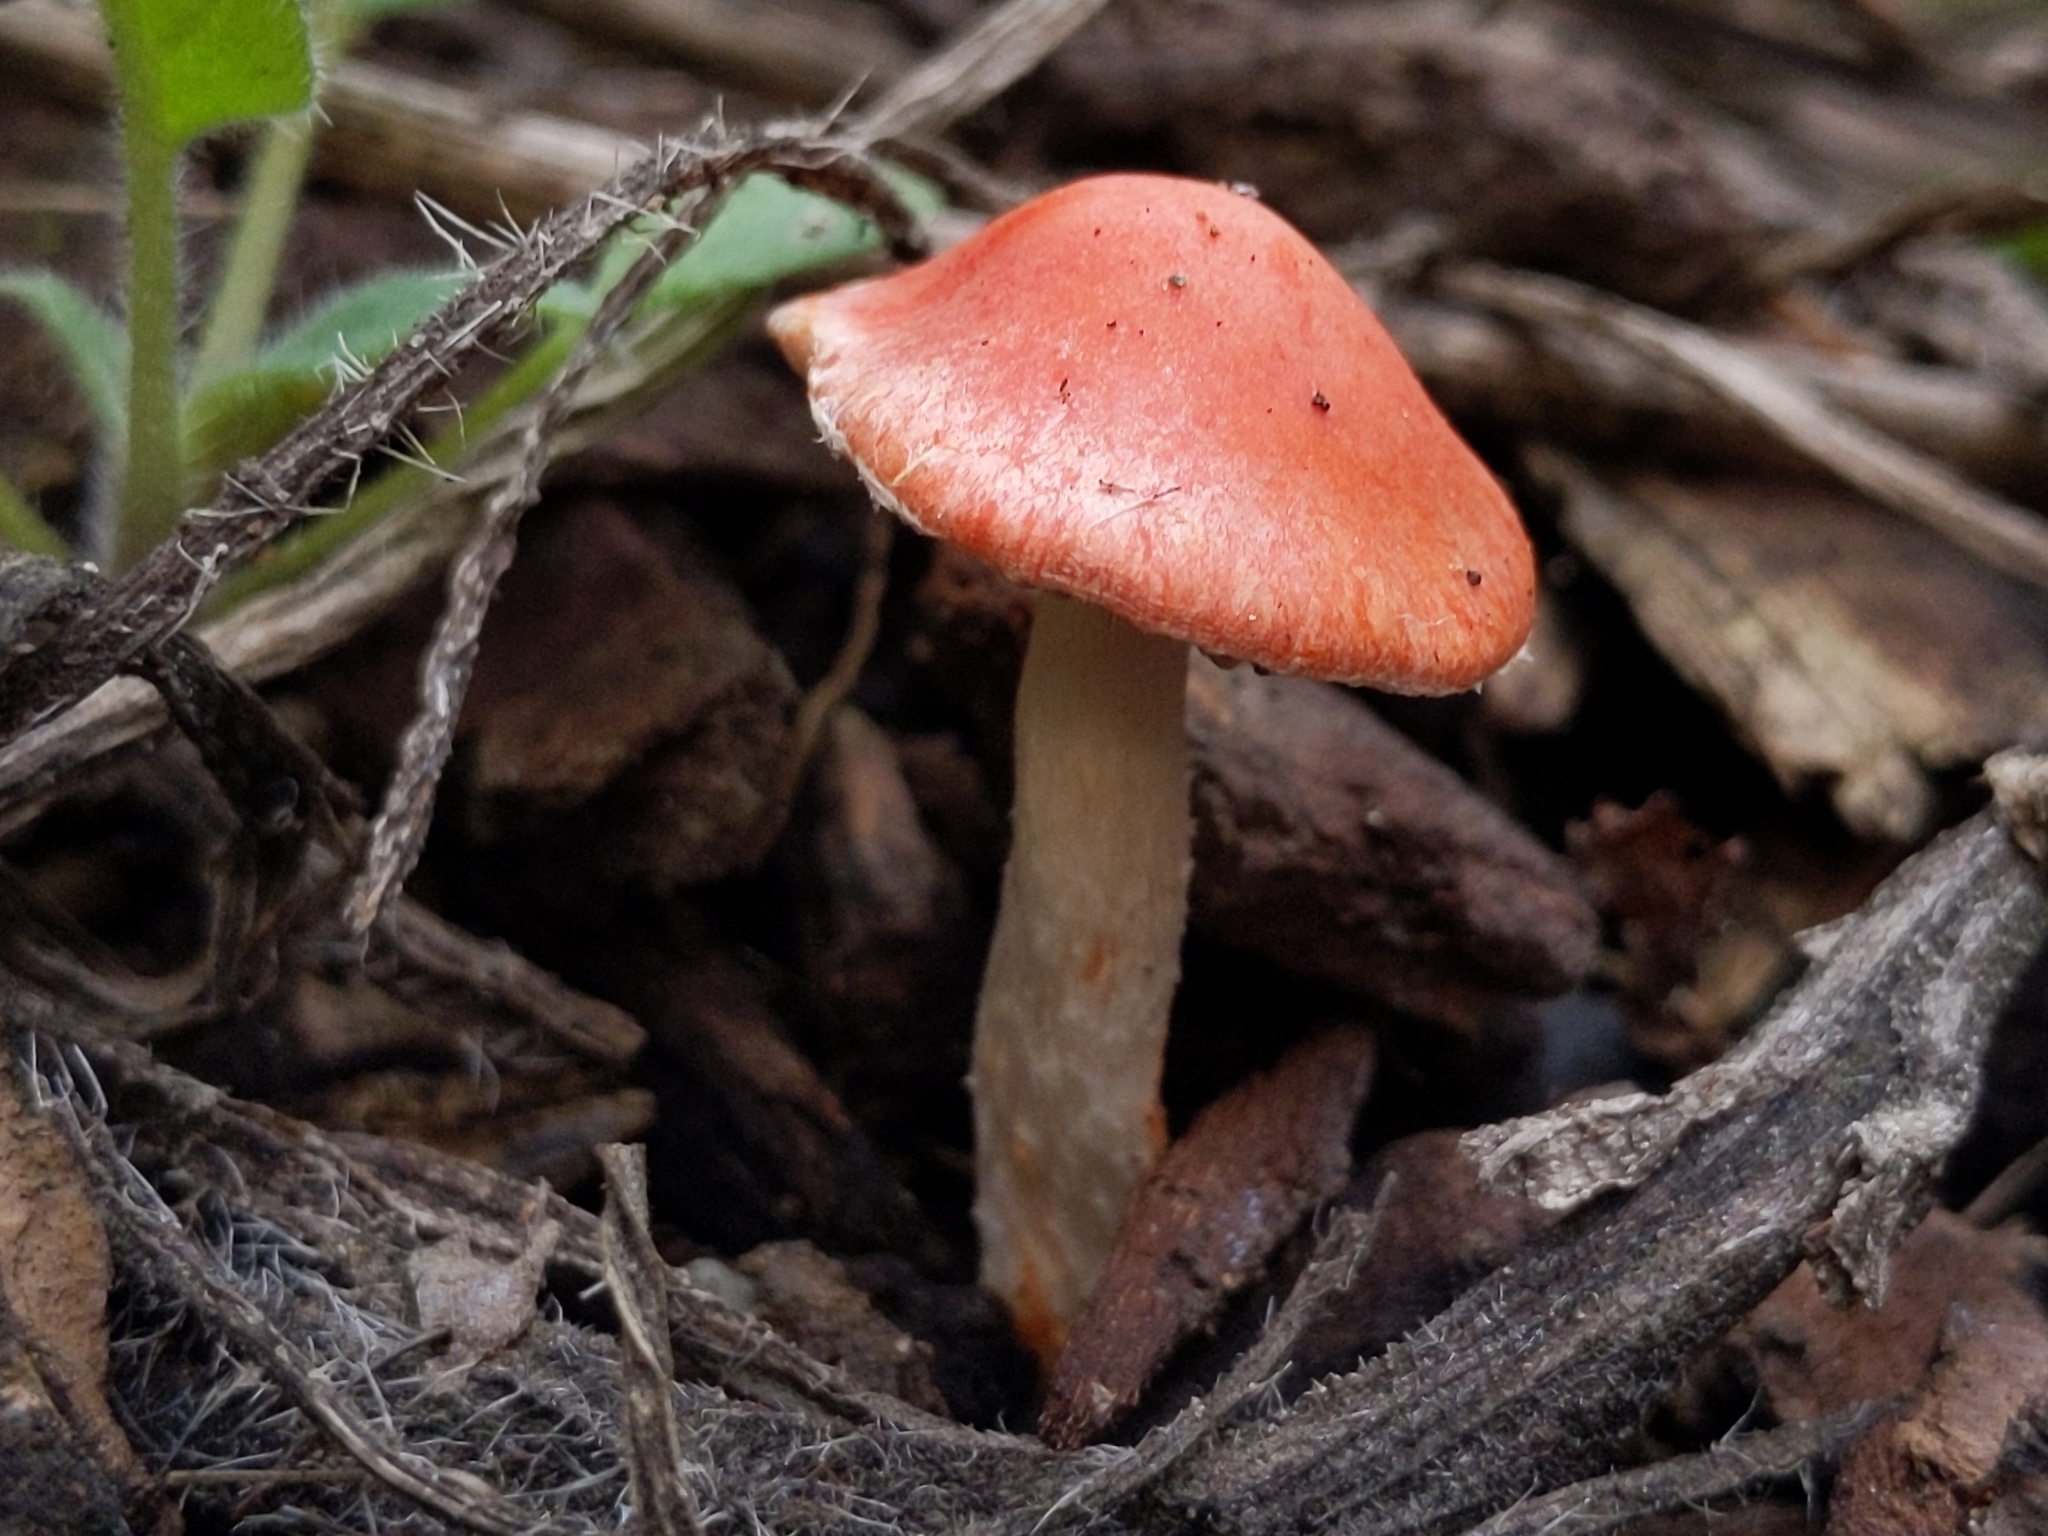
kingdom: Fungi
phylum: Basidiomycota
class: Agaricomycetes
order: Agaricales
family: Strophariaceae
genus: Leratiomyces
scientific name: Leratiomyces ceres
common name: Redlead roundhead
